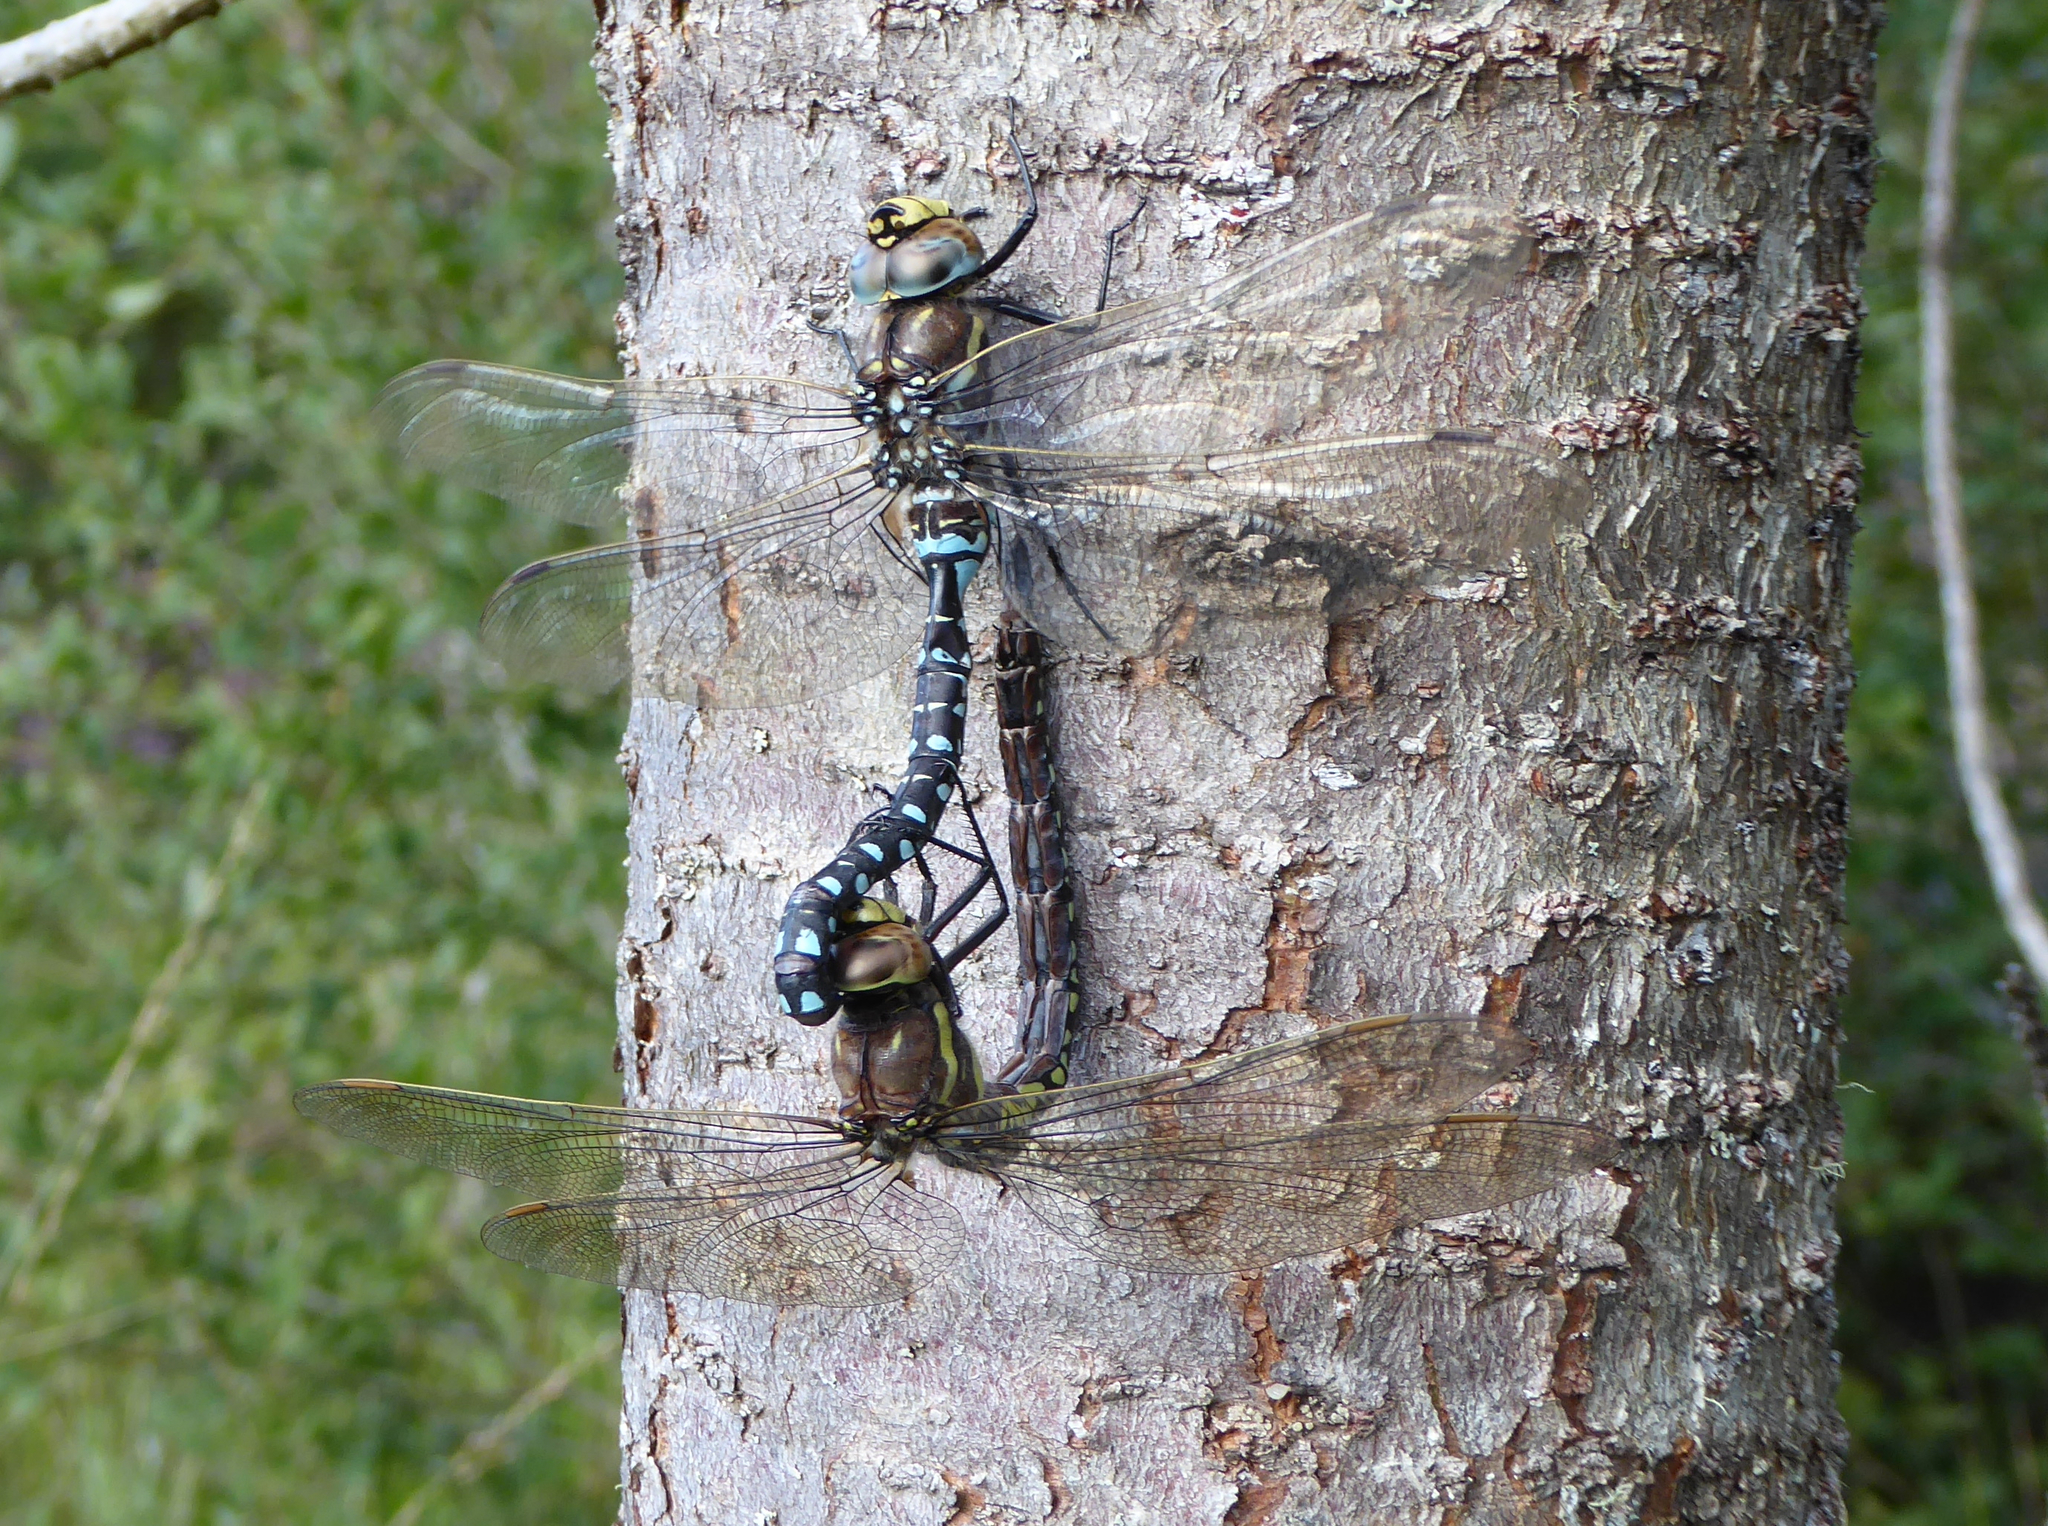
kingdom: Animalia
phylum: Arthropoda
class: Insecta
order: Odonata
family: Aeshnidae
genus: Aeshna
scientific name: Aeshna juncea
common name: Moorland hawker
